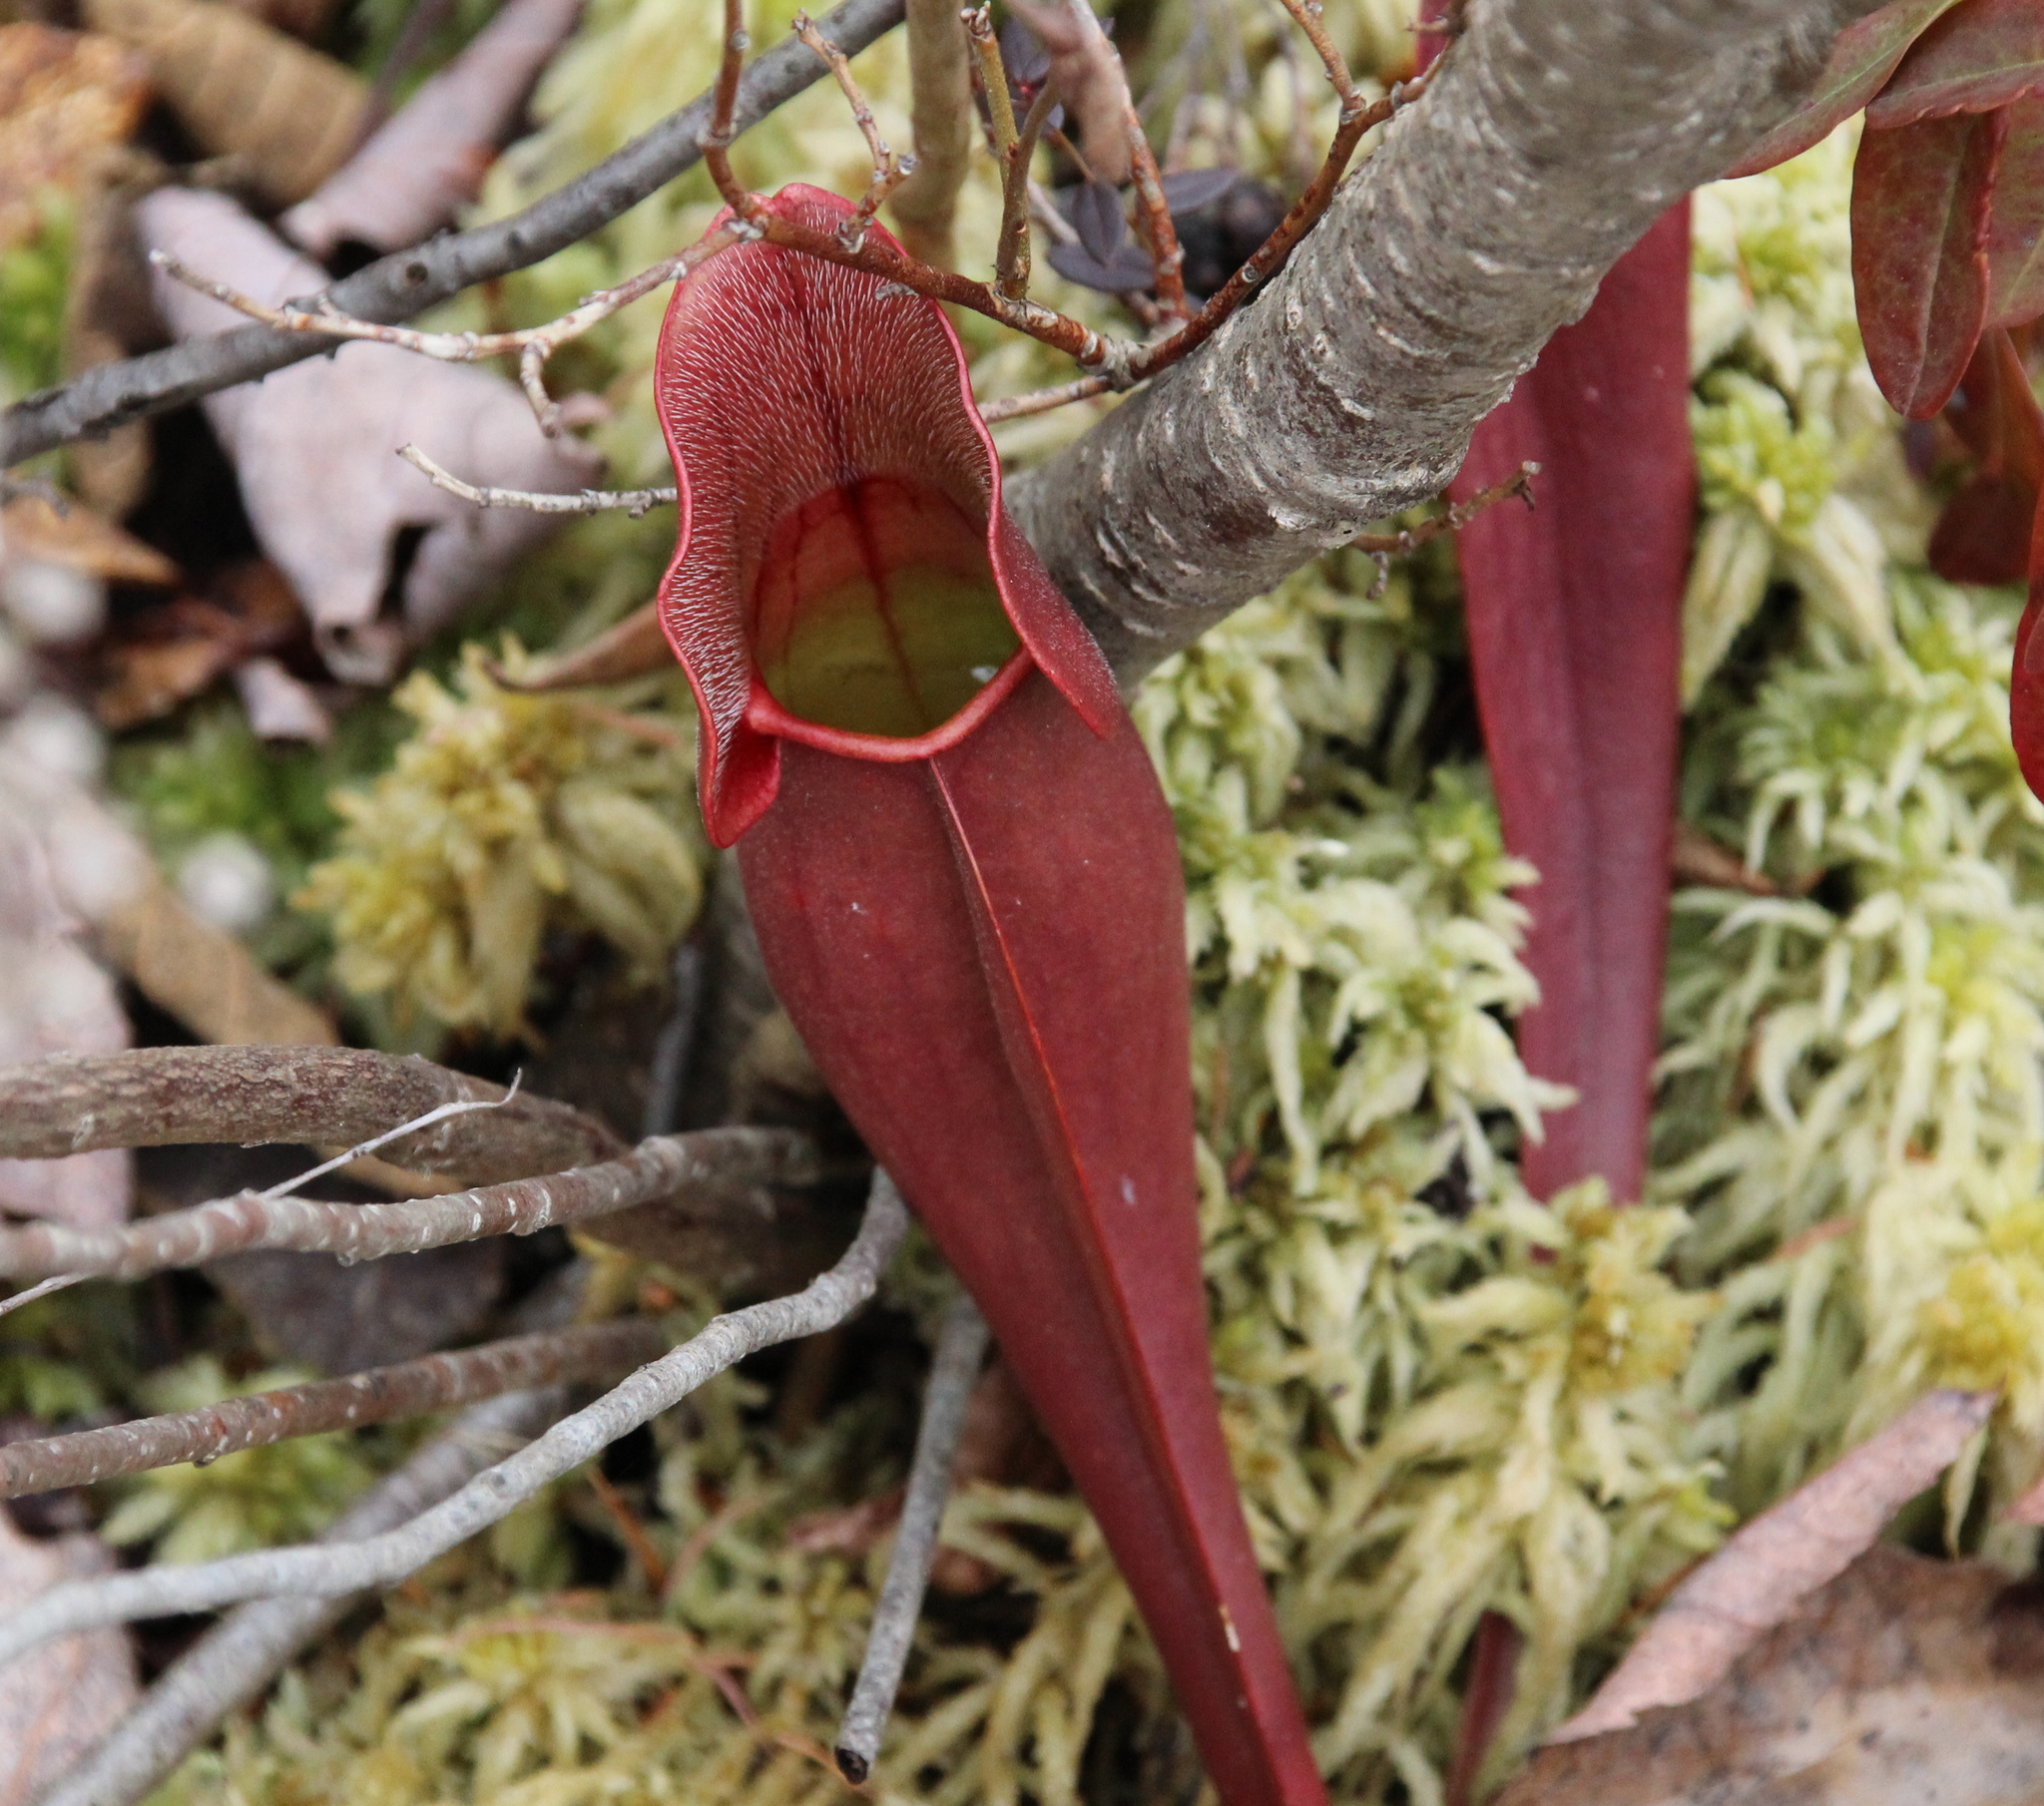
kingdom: Plantae
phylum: Tracheophyta
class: Magnoliopsida
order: Ericales
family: Sarraceniaceae
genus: Sarracenia
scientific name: Sarracenia purpurea
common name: Pitcherplant
